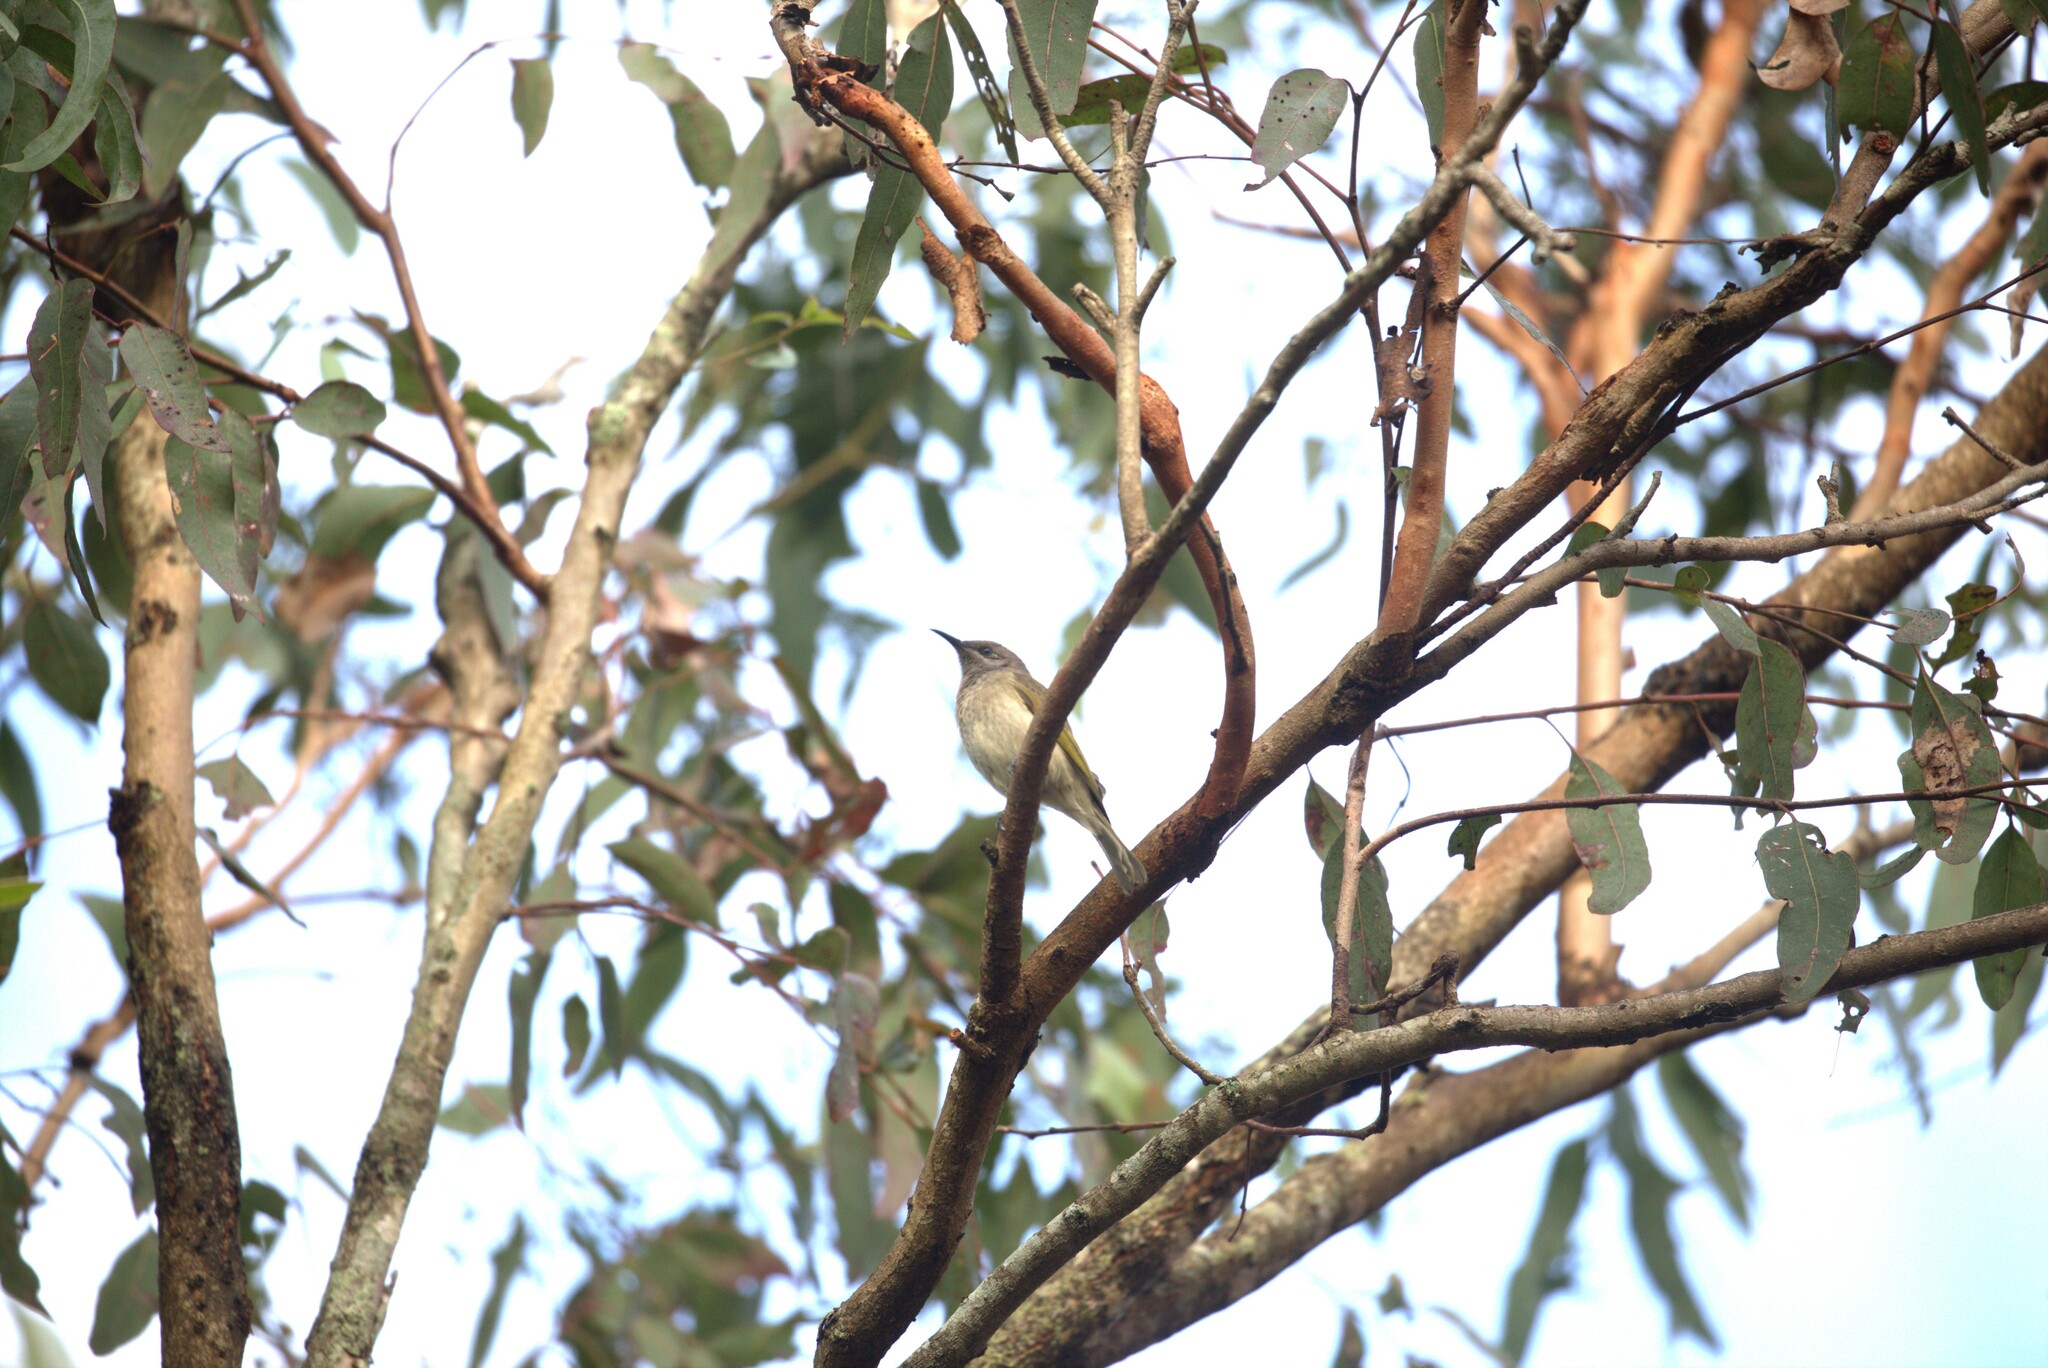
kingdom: Animalia
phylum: Chordata
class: Aves
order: Passeriformes
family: Meliphagidae
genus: Lichmera
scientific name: Lichmera indistincta
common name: Brown honeyeater
